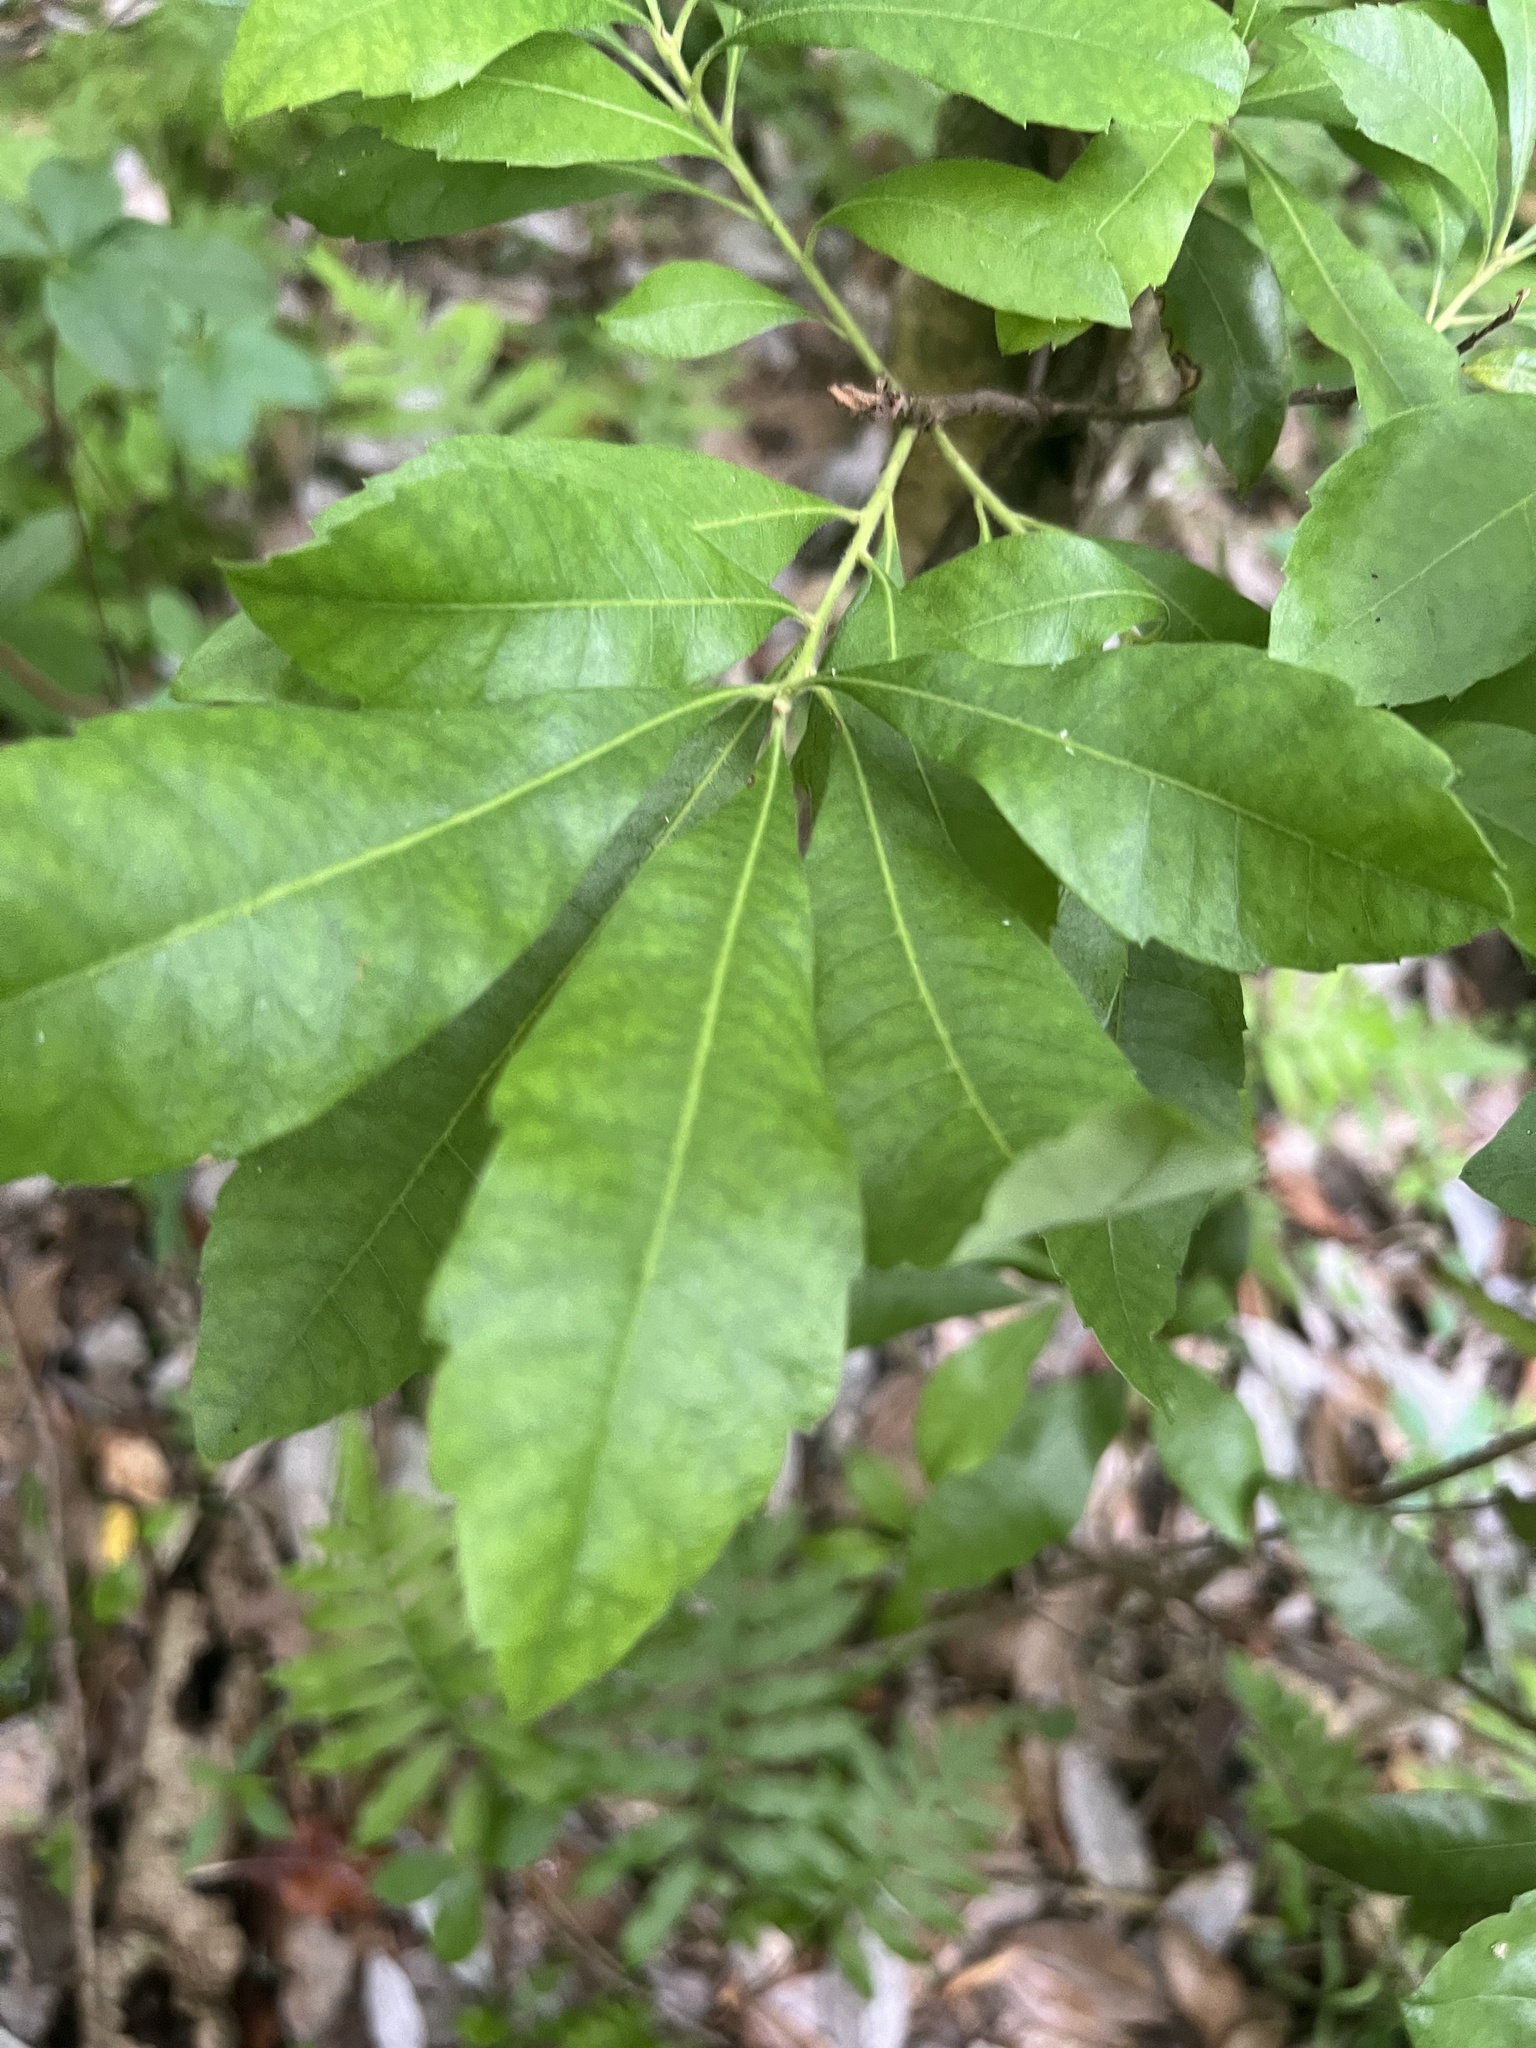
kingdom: Plantae
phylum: Tracheophyta
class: Magnoliopsida
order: Fagales
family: Myricaceae
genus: Morella
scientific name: Morella caroliniensis
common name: Evergreen bayberry
